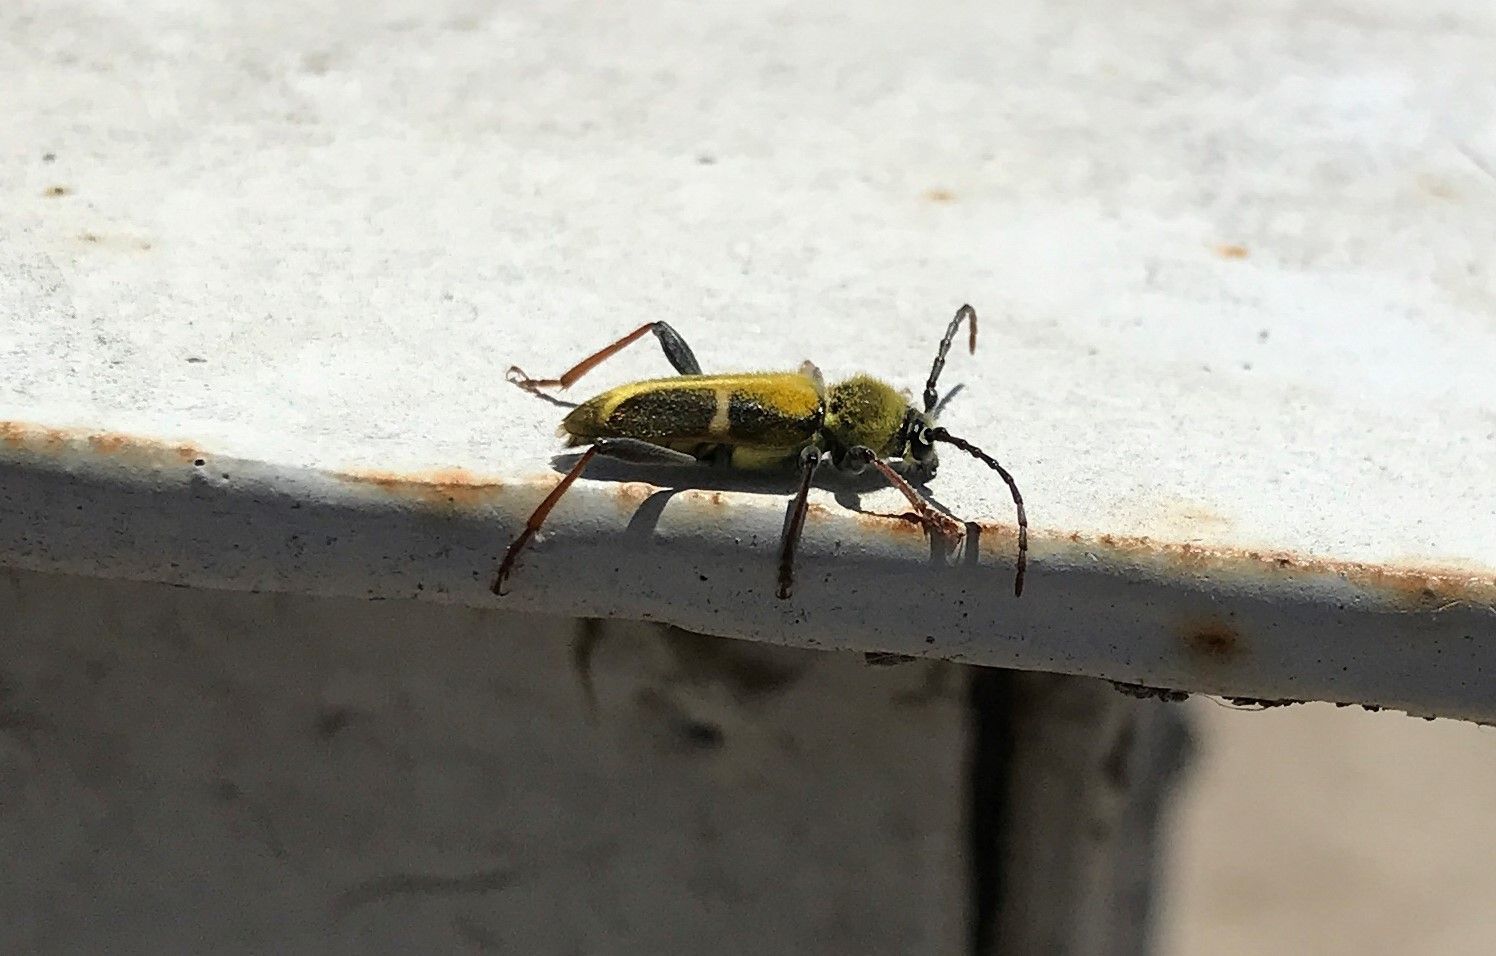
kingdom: Animalia
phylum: Arthropoda
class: Insecta
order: Coleoptera
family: Cerambycidae
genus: Triodoclytus
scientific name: Triodoclytus lanifer
